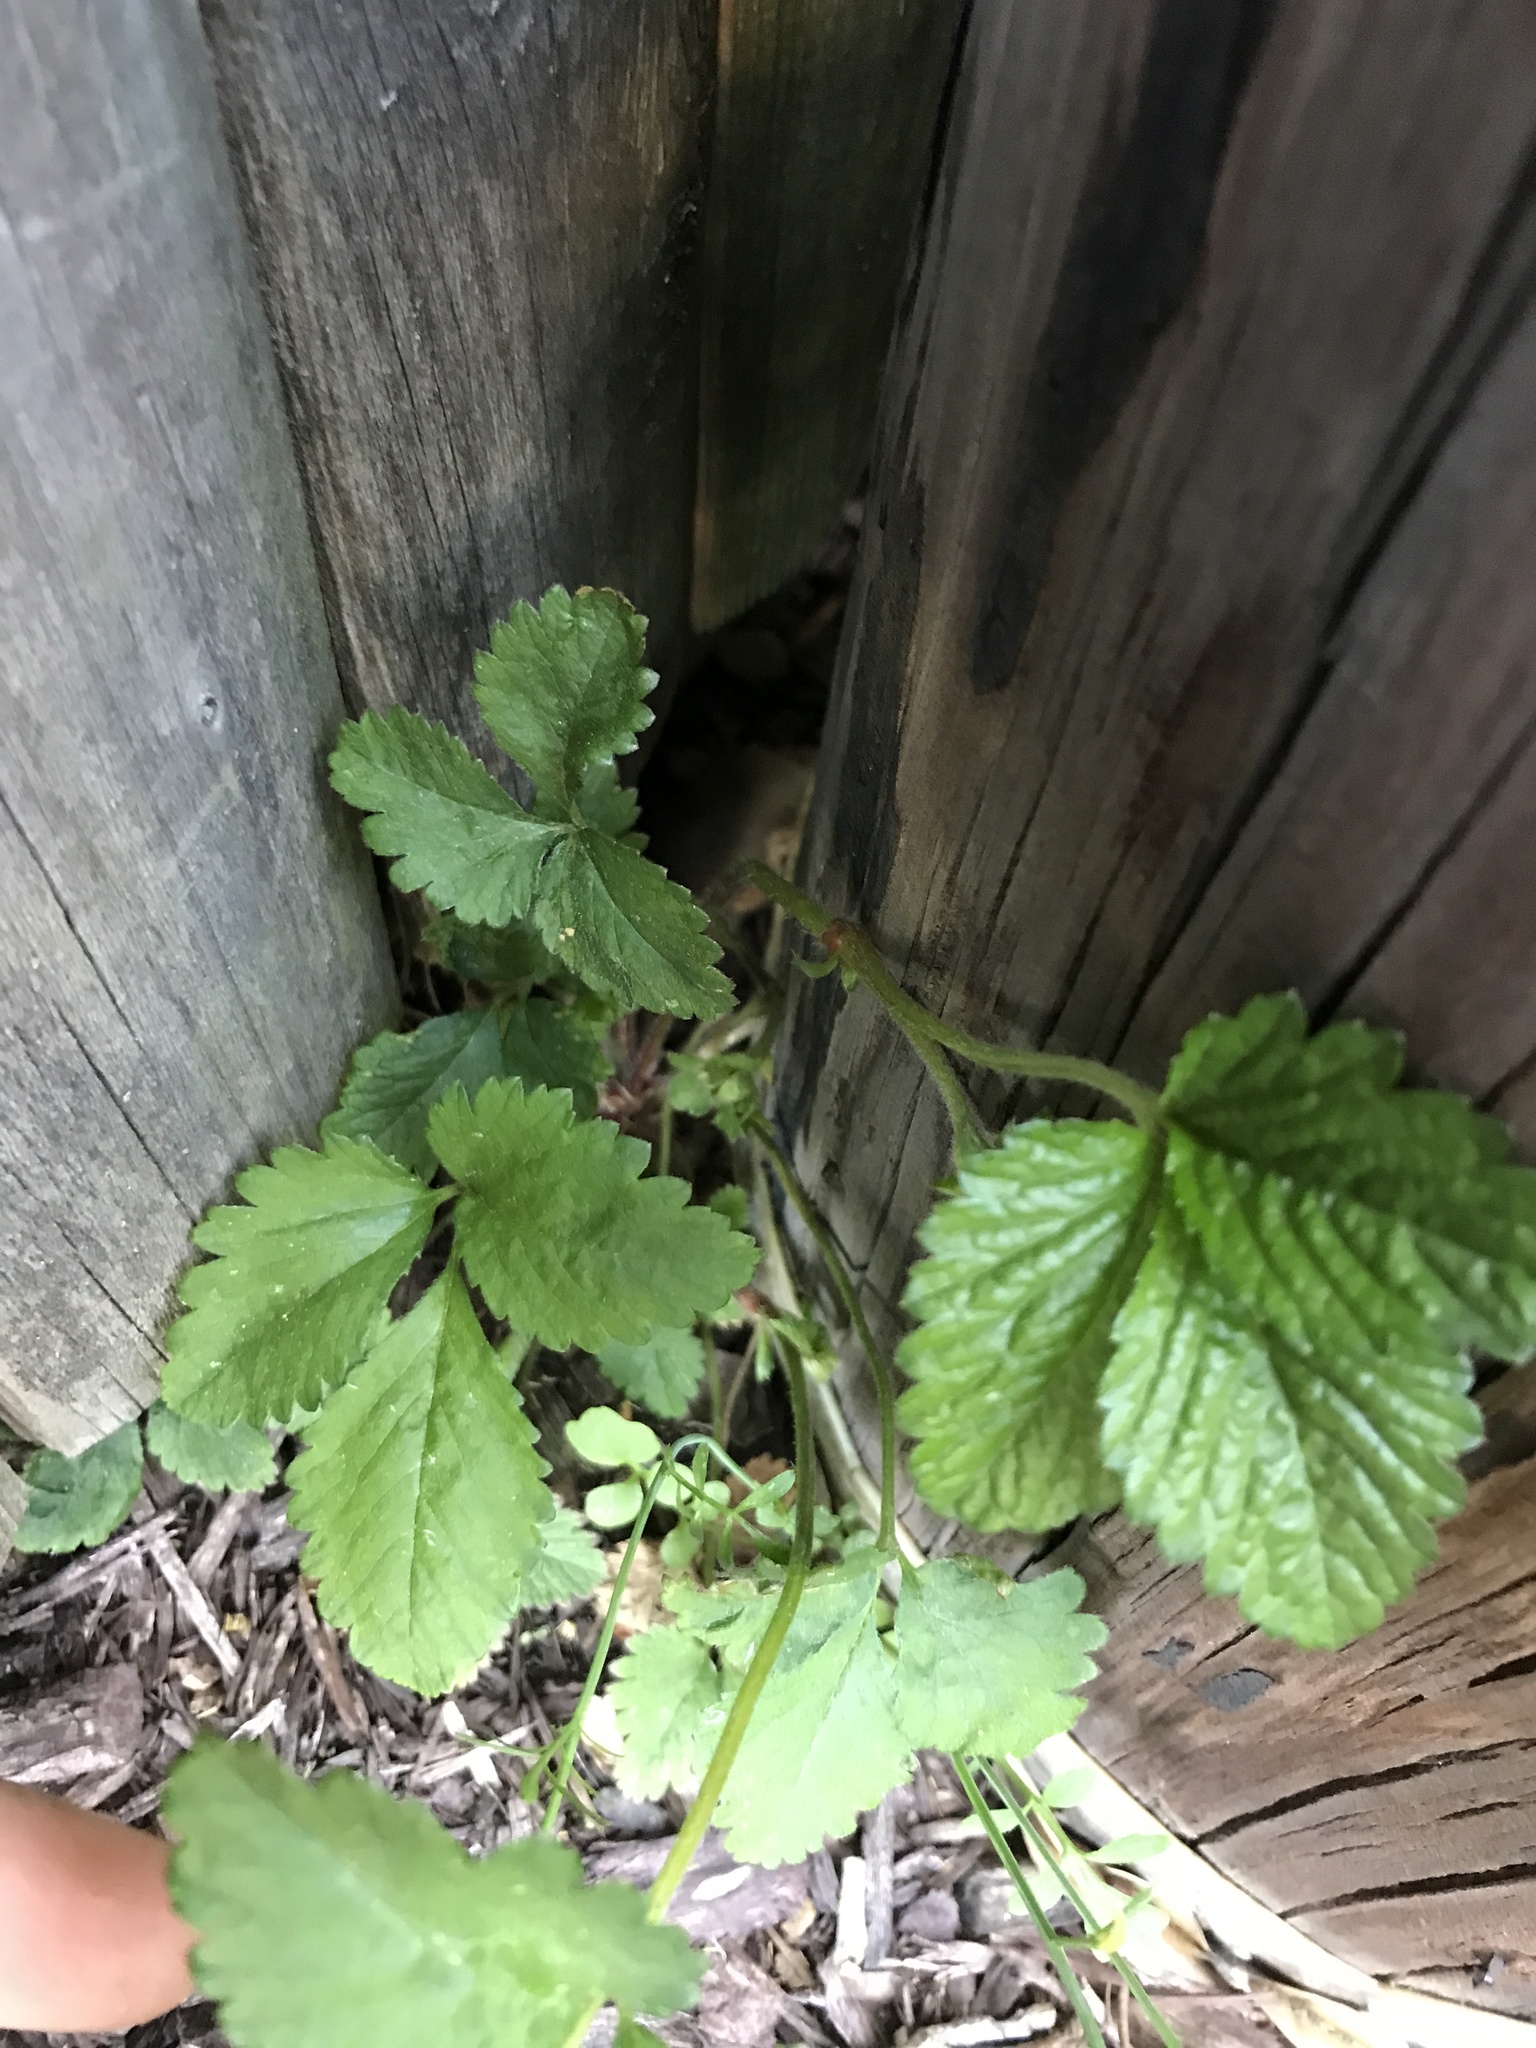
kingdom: Plantae
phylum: Tracheophyta
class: Magnoliopsida
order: Rosales
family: Rosaceae
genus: Potentilla
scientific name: Potentilla indica
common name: Yellow-flowered strawberry
